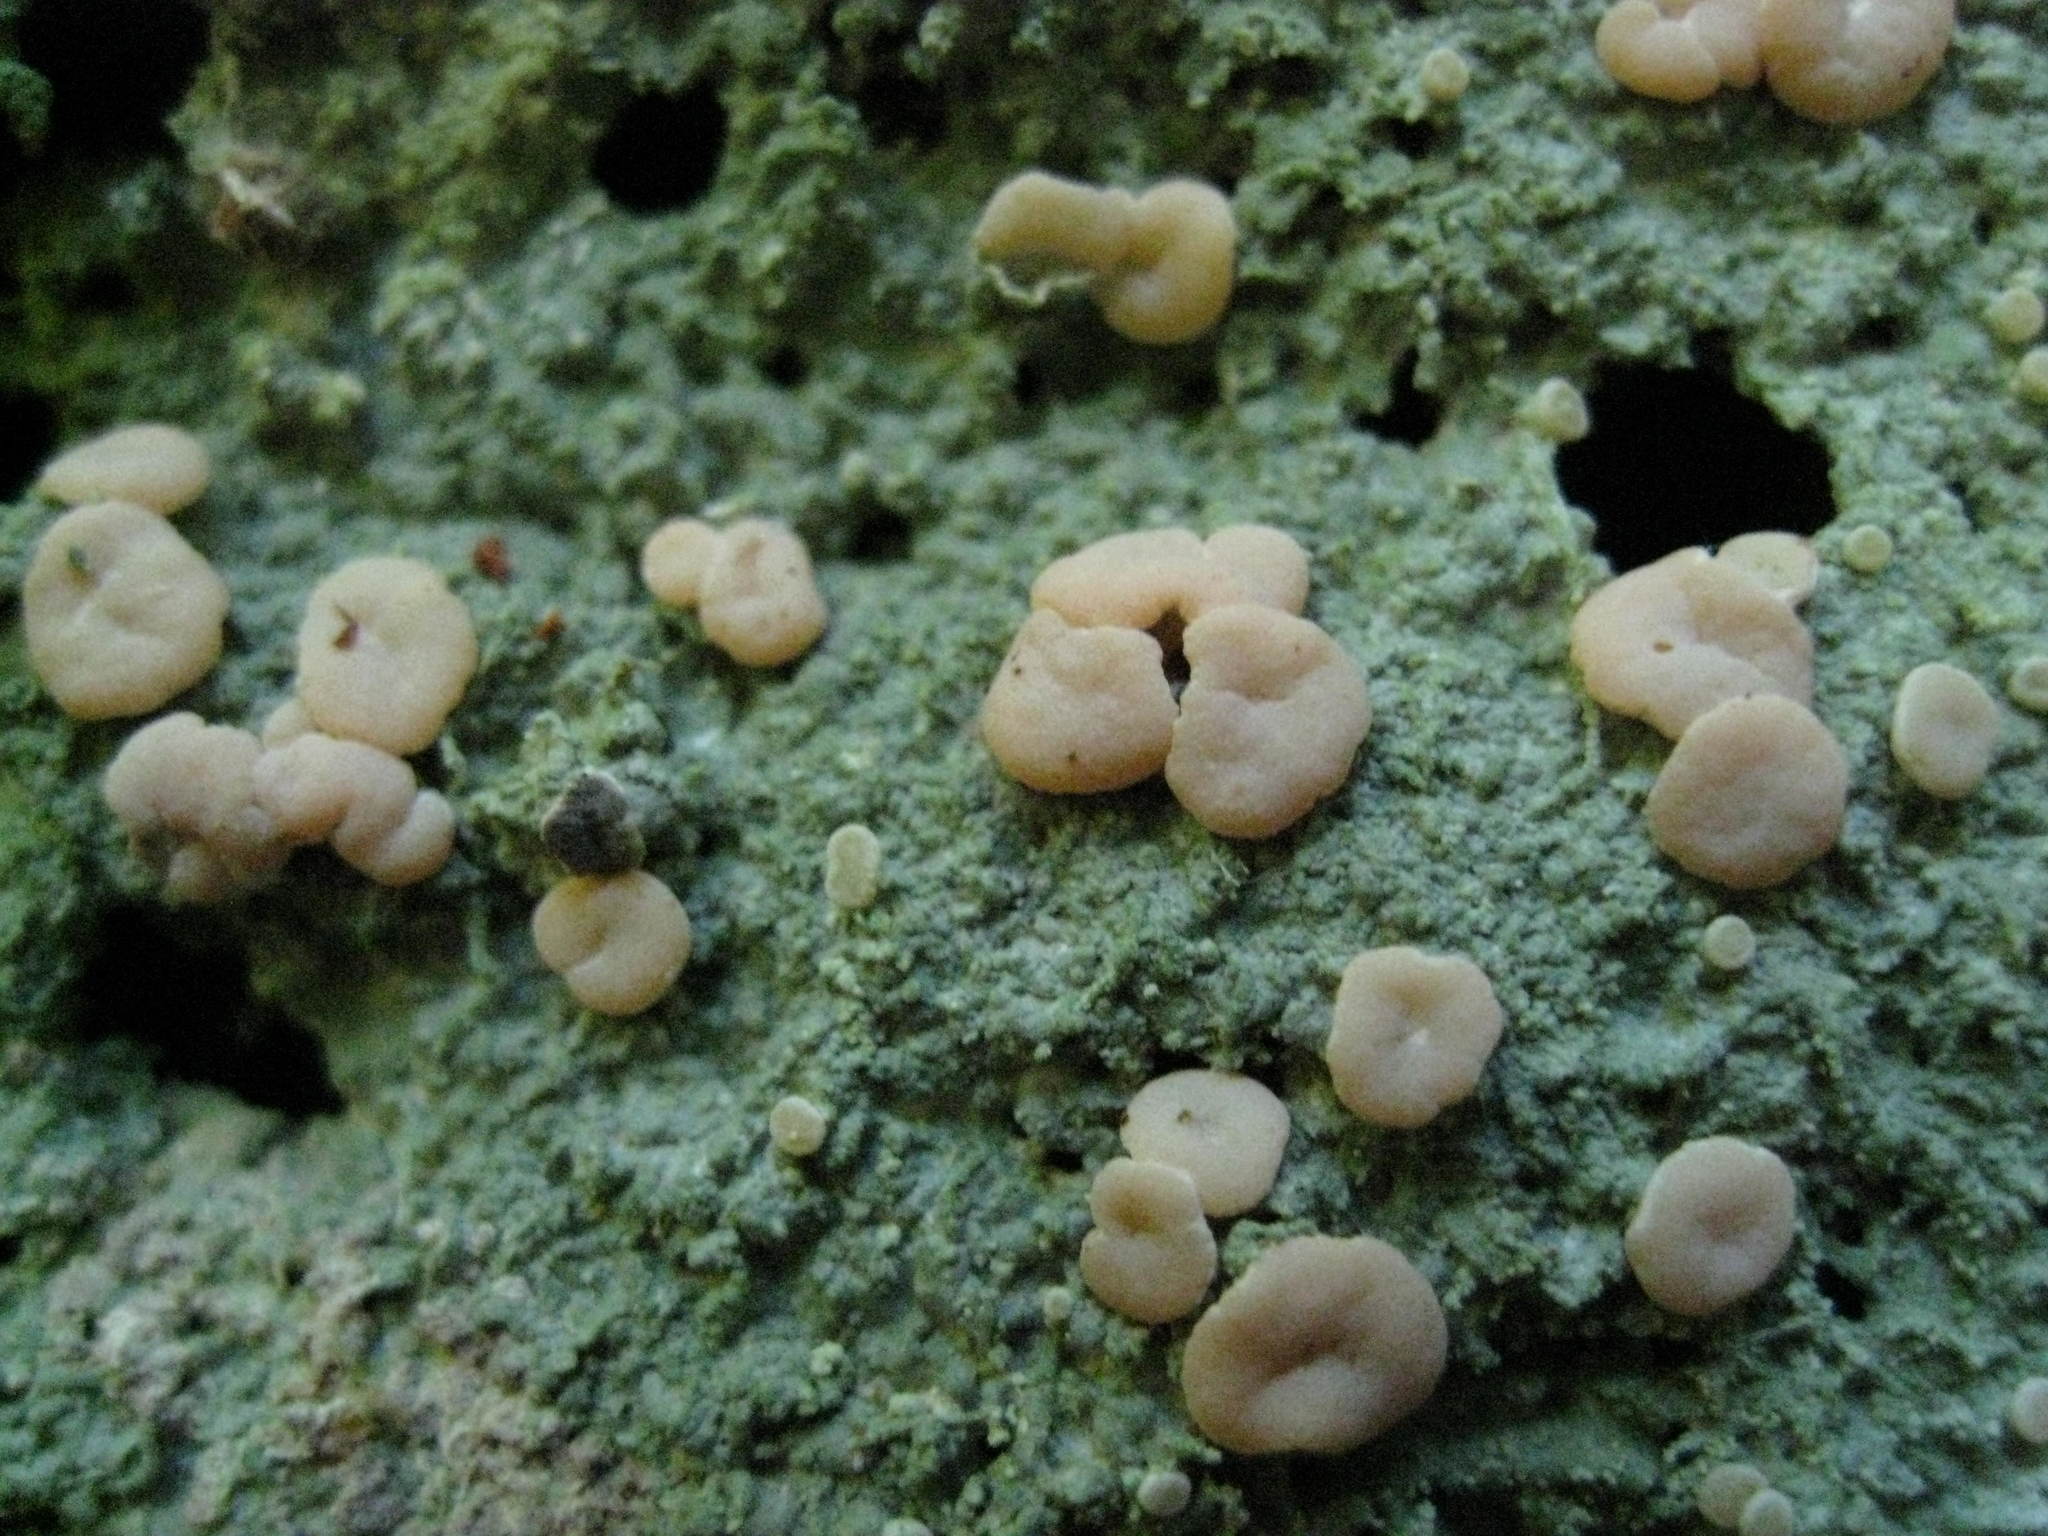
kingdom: Fungi
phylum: Ascomycota
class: Lecanoromycetes
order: Pertusariales
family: Icmadophilaceae
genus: Icmadophila
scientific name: Icmadophila ericetorum
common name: Candy lichen
